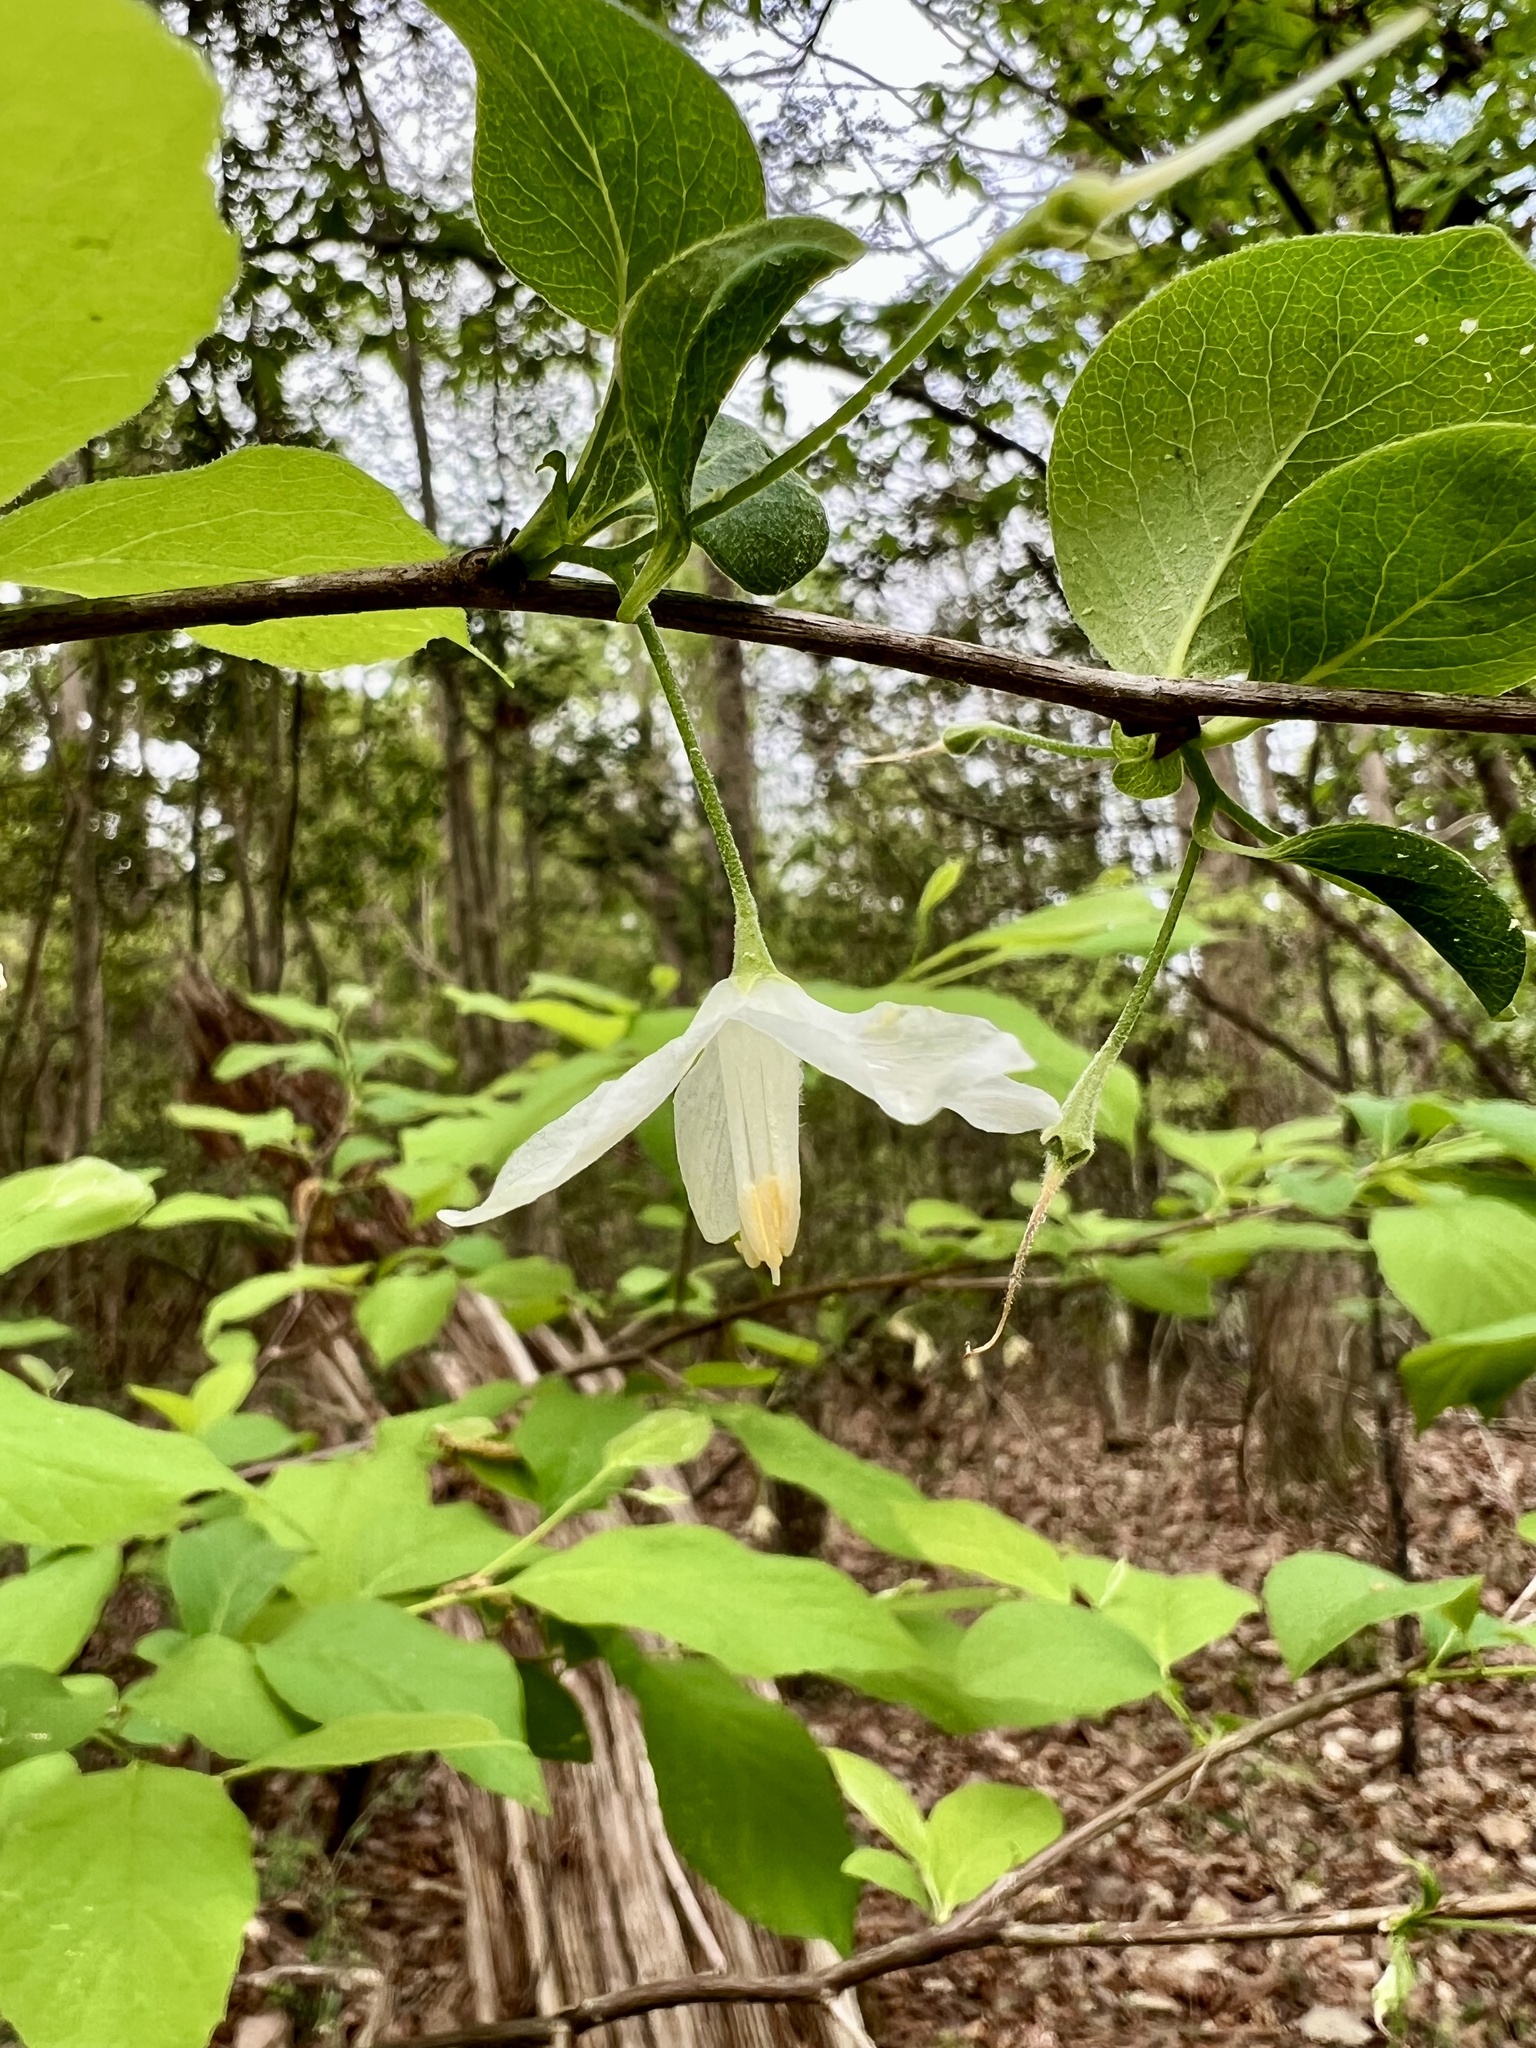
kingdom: Plantae
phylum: Tracheophyta
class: Magnoliopsida
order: Ericales
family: Styracaceae
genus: Halesia
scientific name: Halesia diptera
